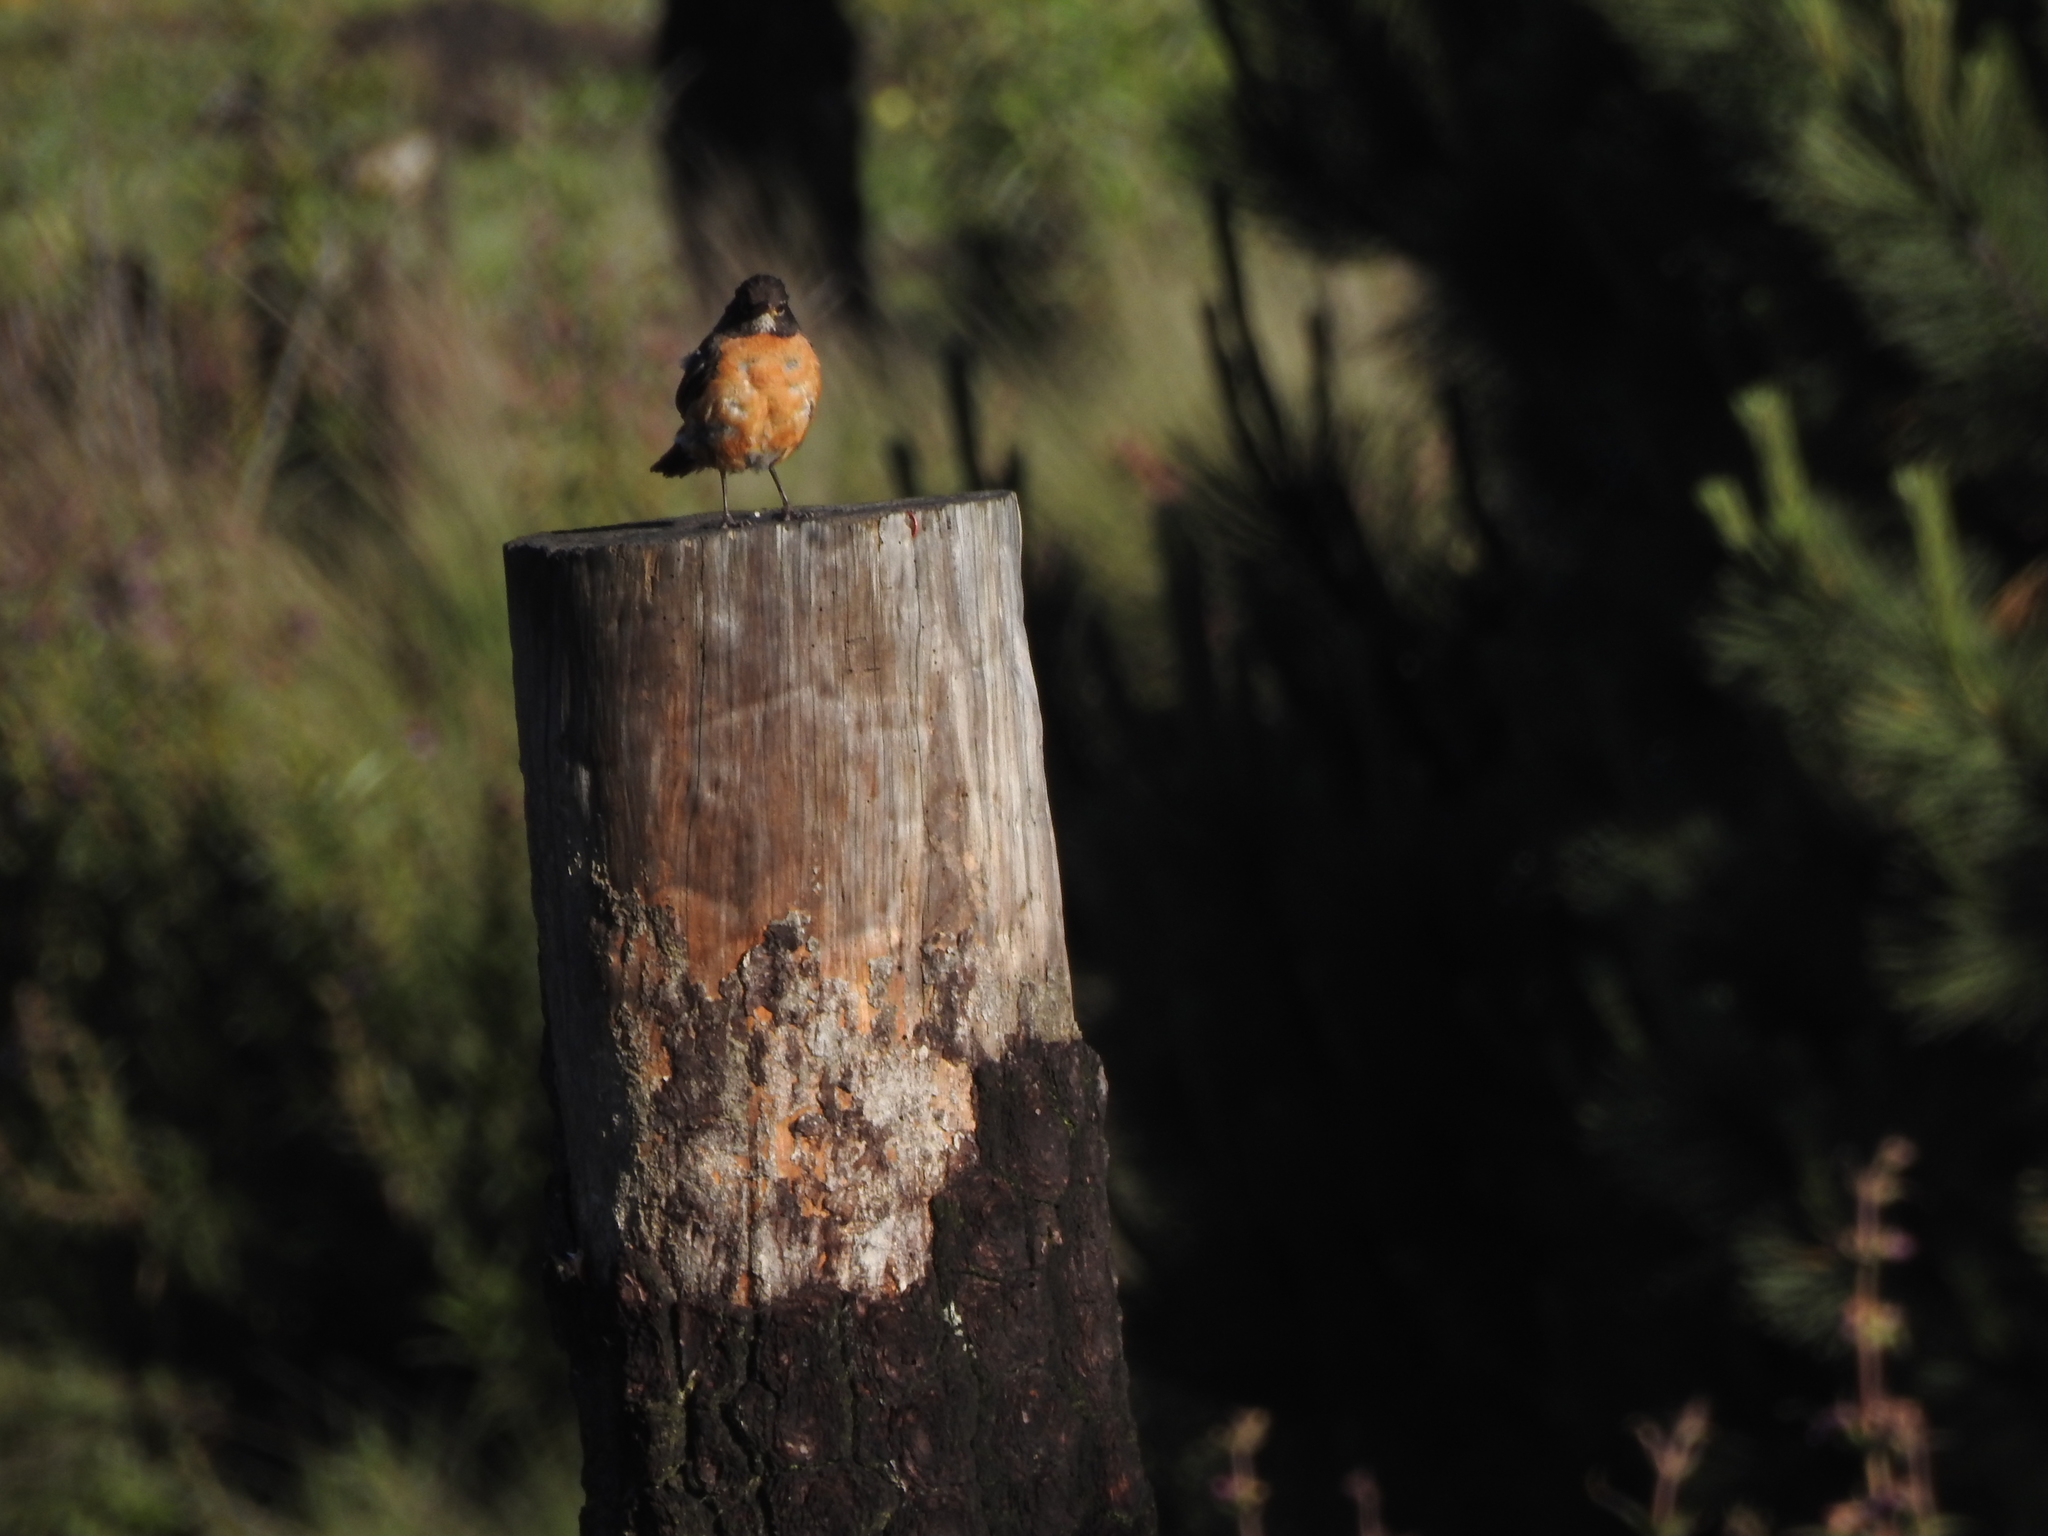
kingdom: Animalia
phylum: Chordata
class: Aves
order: Passeriformes
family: Turdidae
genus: Turdus
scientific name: Turdus migratorius
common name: American robin
